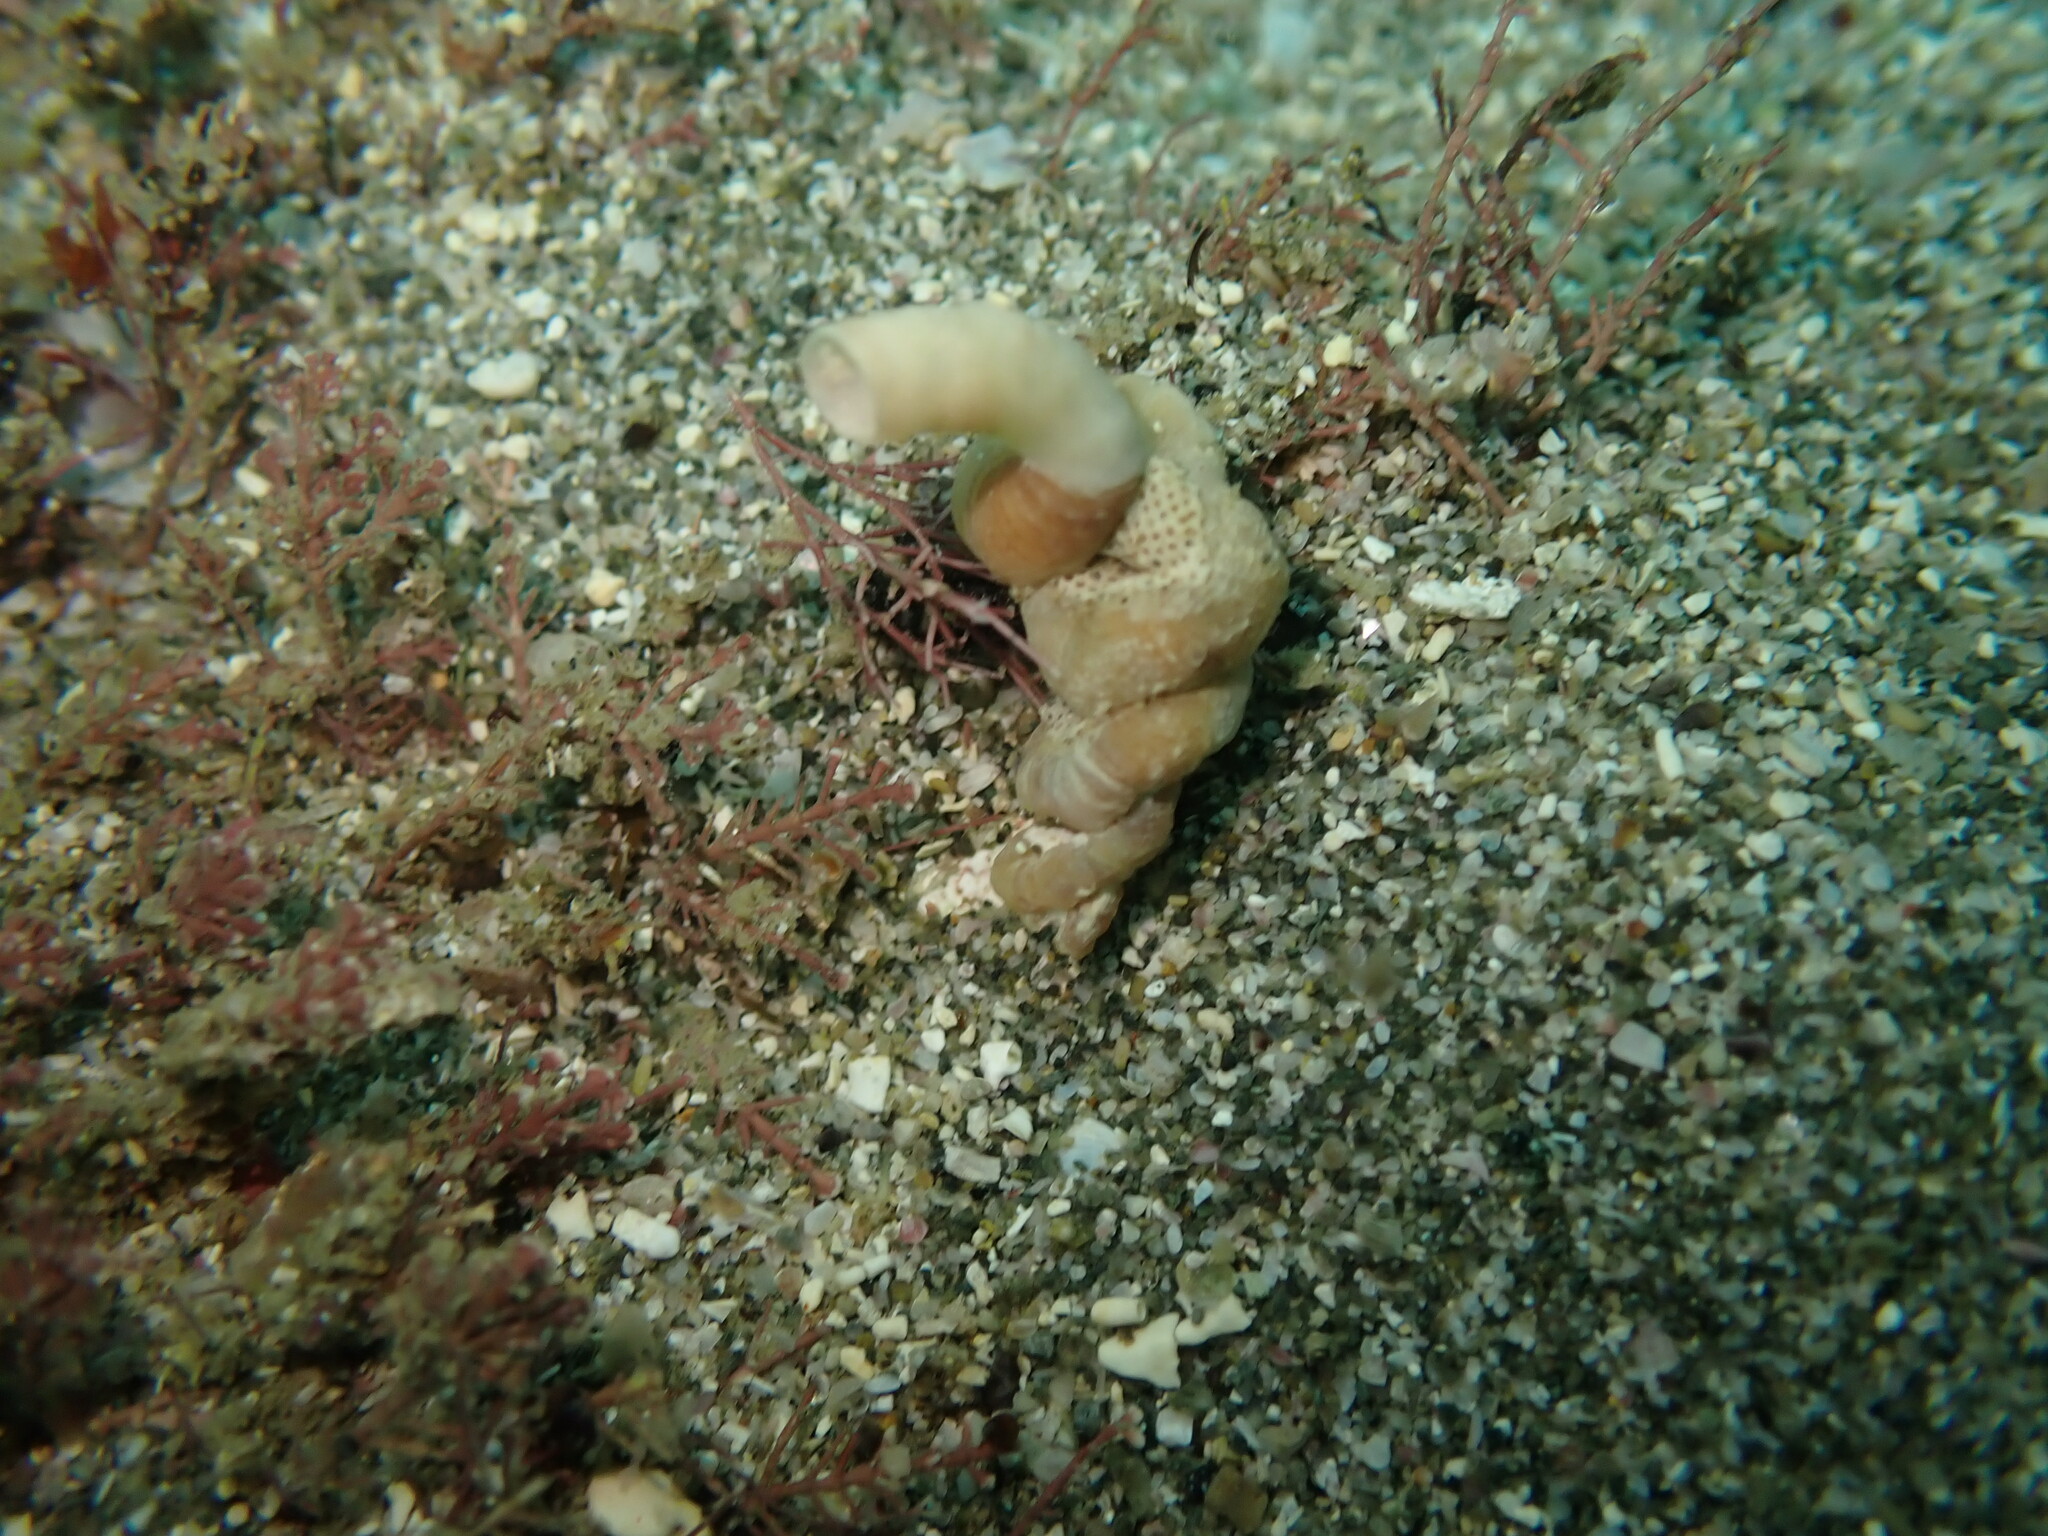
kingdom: Animalia
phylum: Mollusca
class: Gastropoda
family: Siliquariidae
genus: Stephopoma
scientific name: Stephopoma roseum
